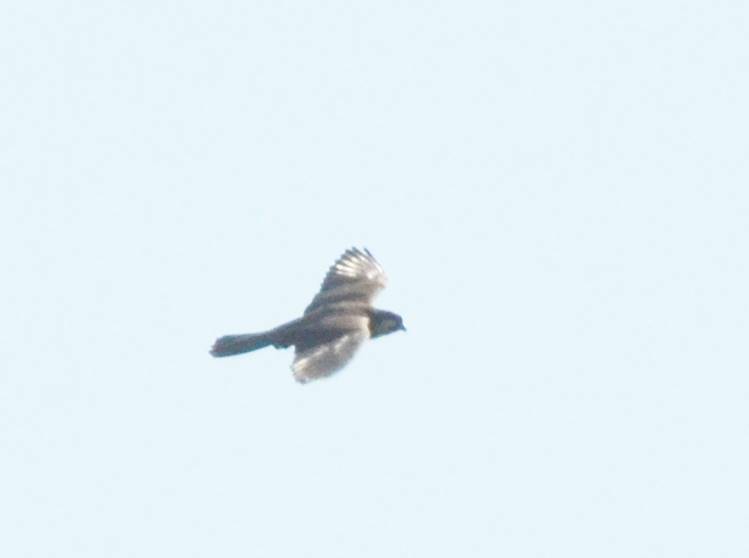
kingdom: Animalia
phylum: Chordata
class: Aves
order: Falconiformes
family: Falconidae
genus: Falco
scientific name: Falco eleonorae
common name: Eleonora's falcon
